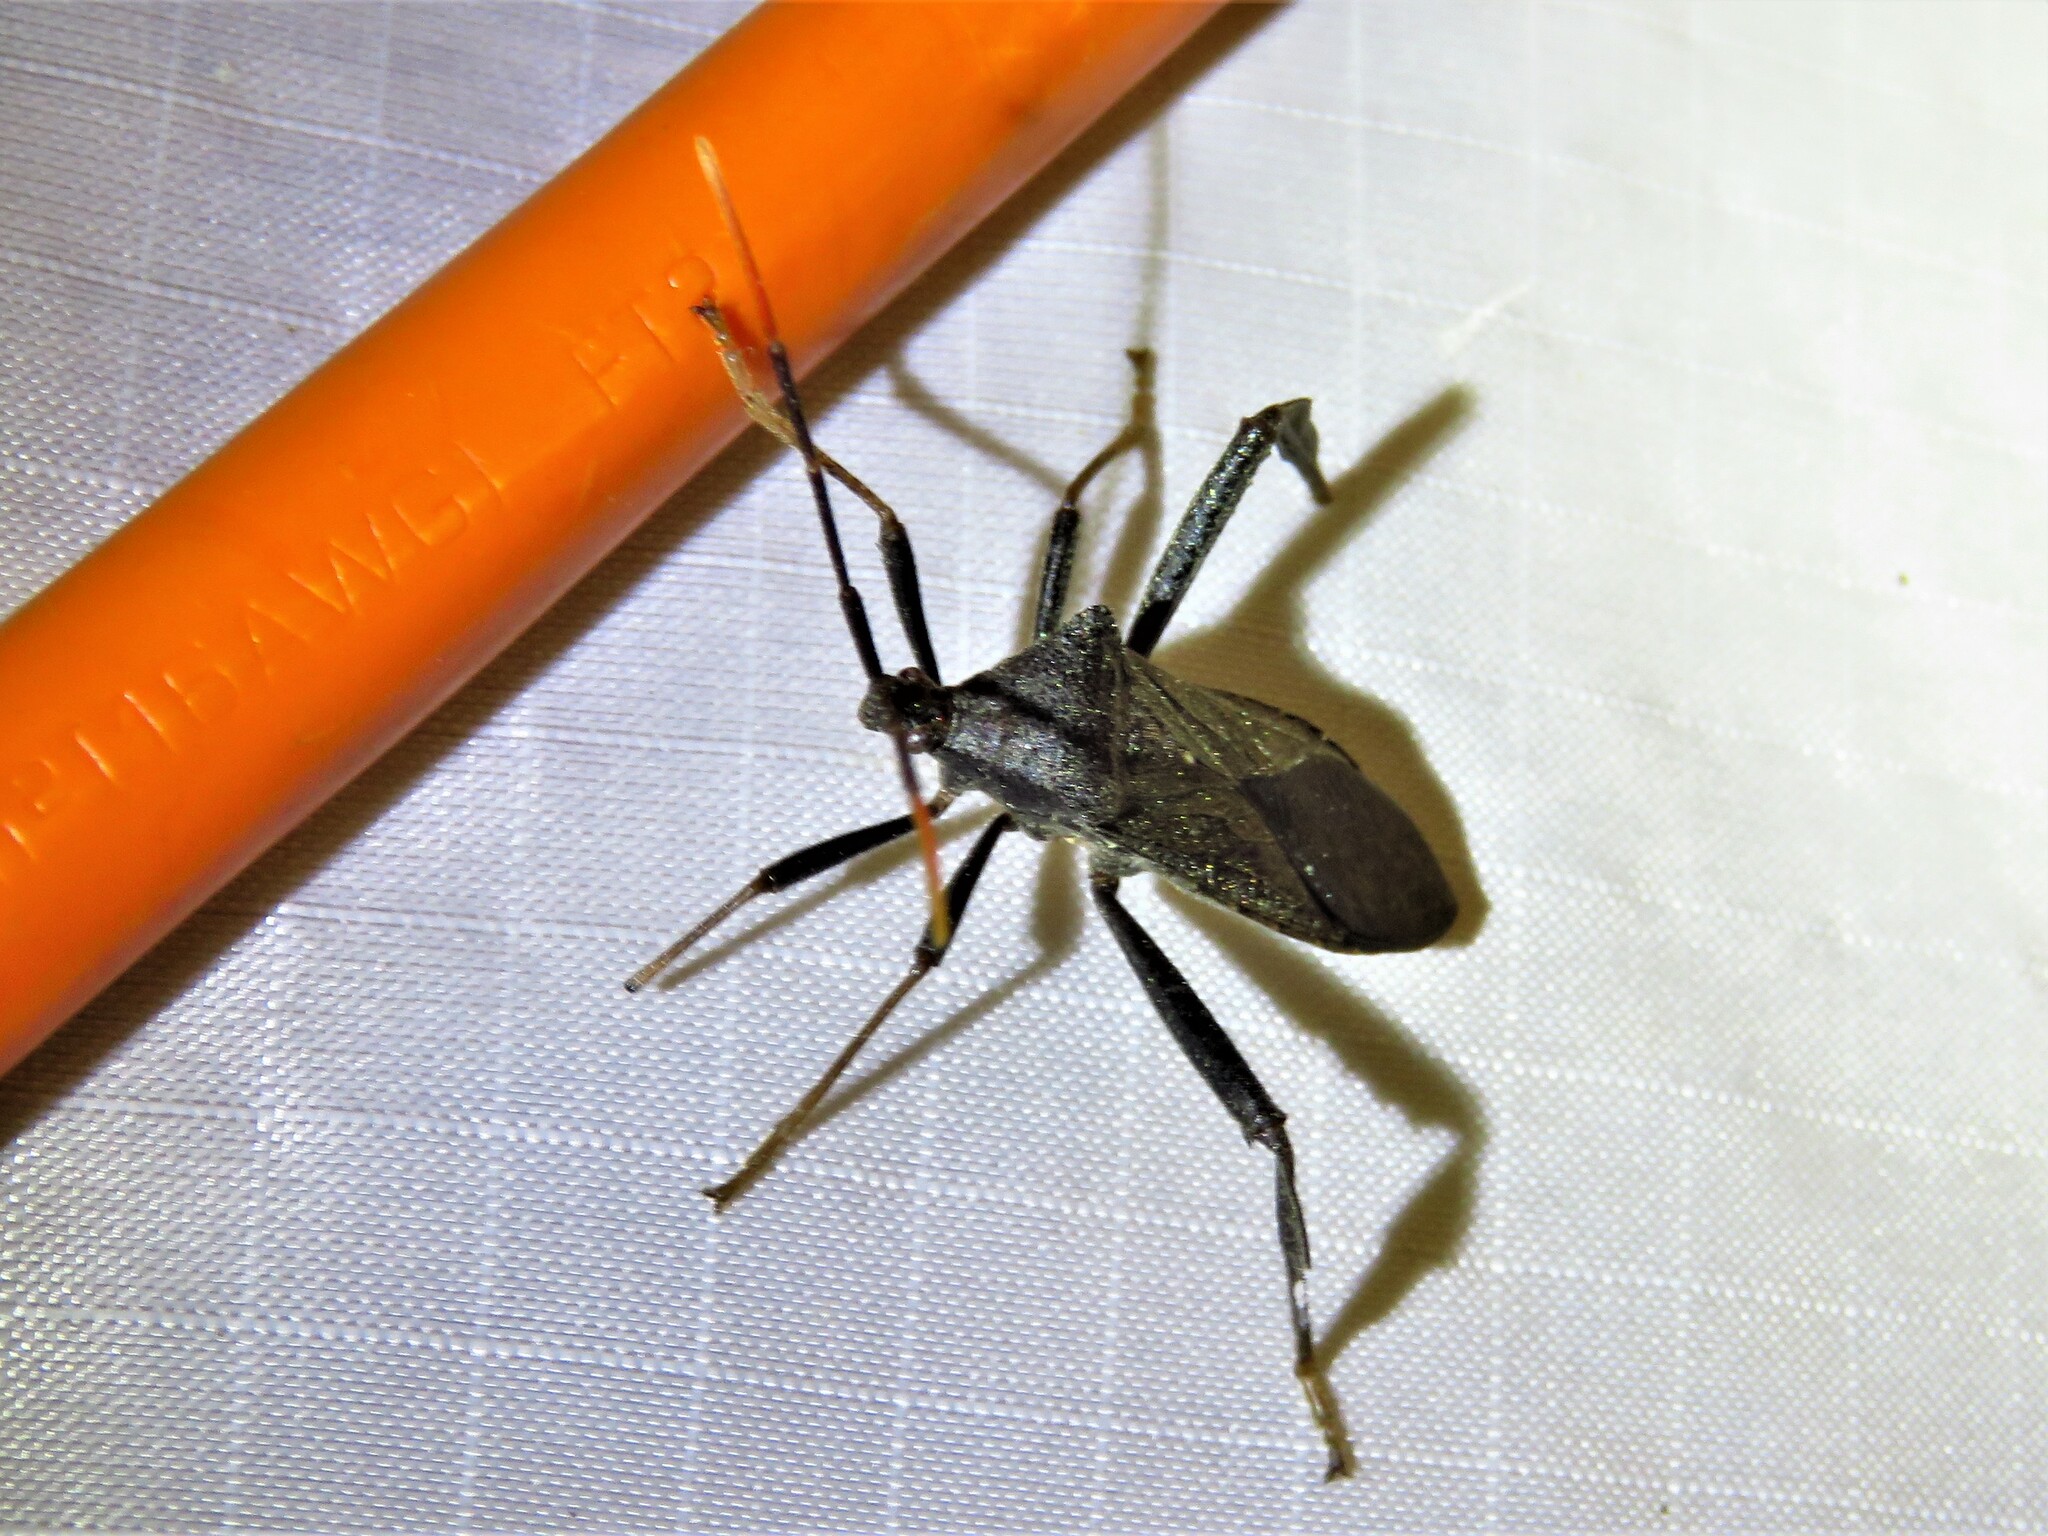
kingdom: Animalia
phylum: Arthropoda
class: Insecta
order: Hemiptera
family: Coreidae
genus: Acanthocephala
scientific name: Acanthocephala terminalis
